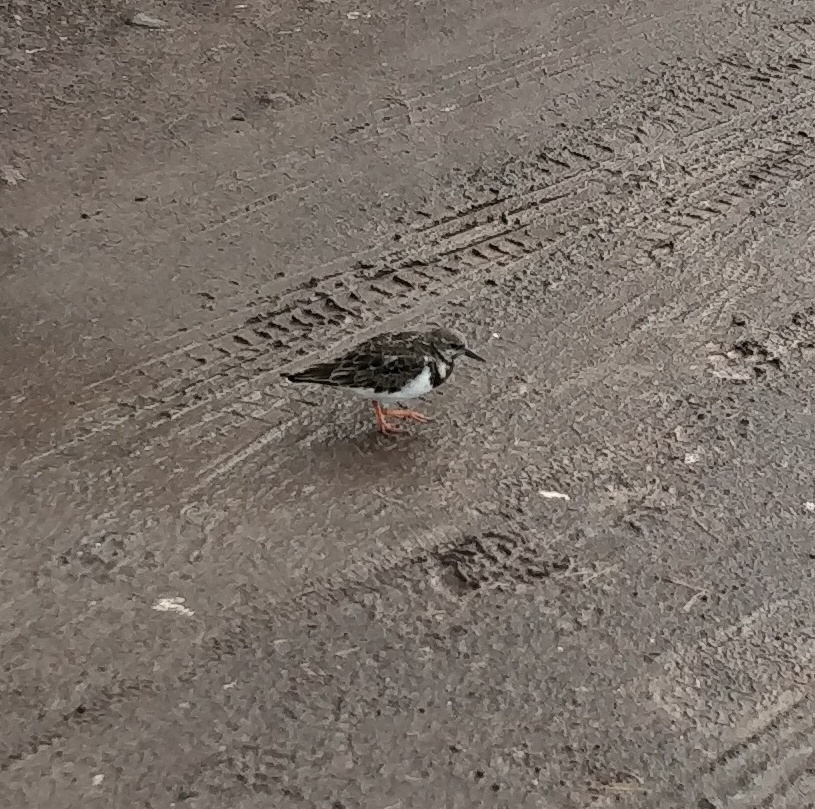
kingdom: Animalia
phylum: Chordata
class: Aves
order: Charadriiformes
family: Scolopacidae
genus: Arenaria
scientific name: Arenaria interpres
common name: Ruddy turnstone
